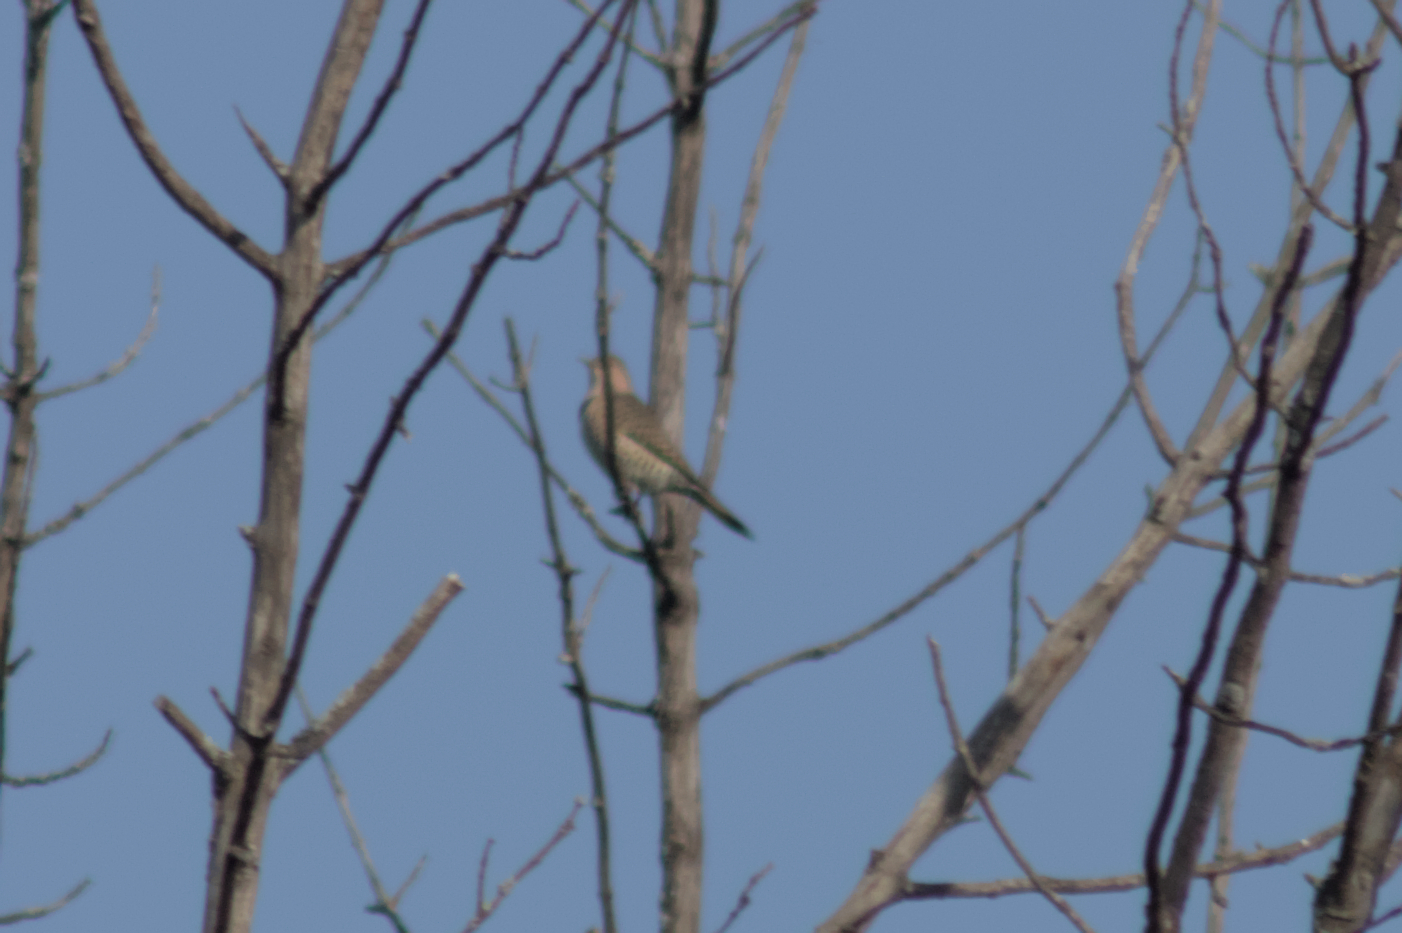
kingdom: Animalia
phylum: Chordata
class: Aves
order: Piciformes
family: Picidae
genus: Colaptes
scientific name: Colaptes auratus
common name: Northern flicker
